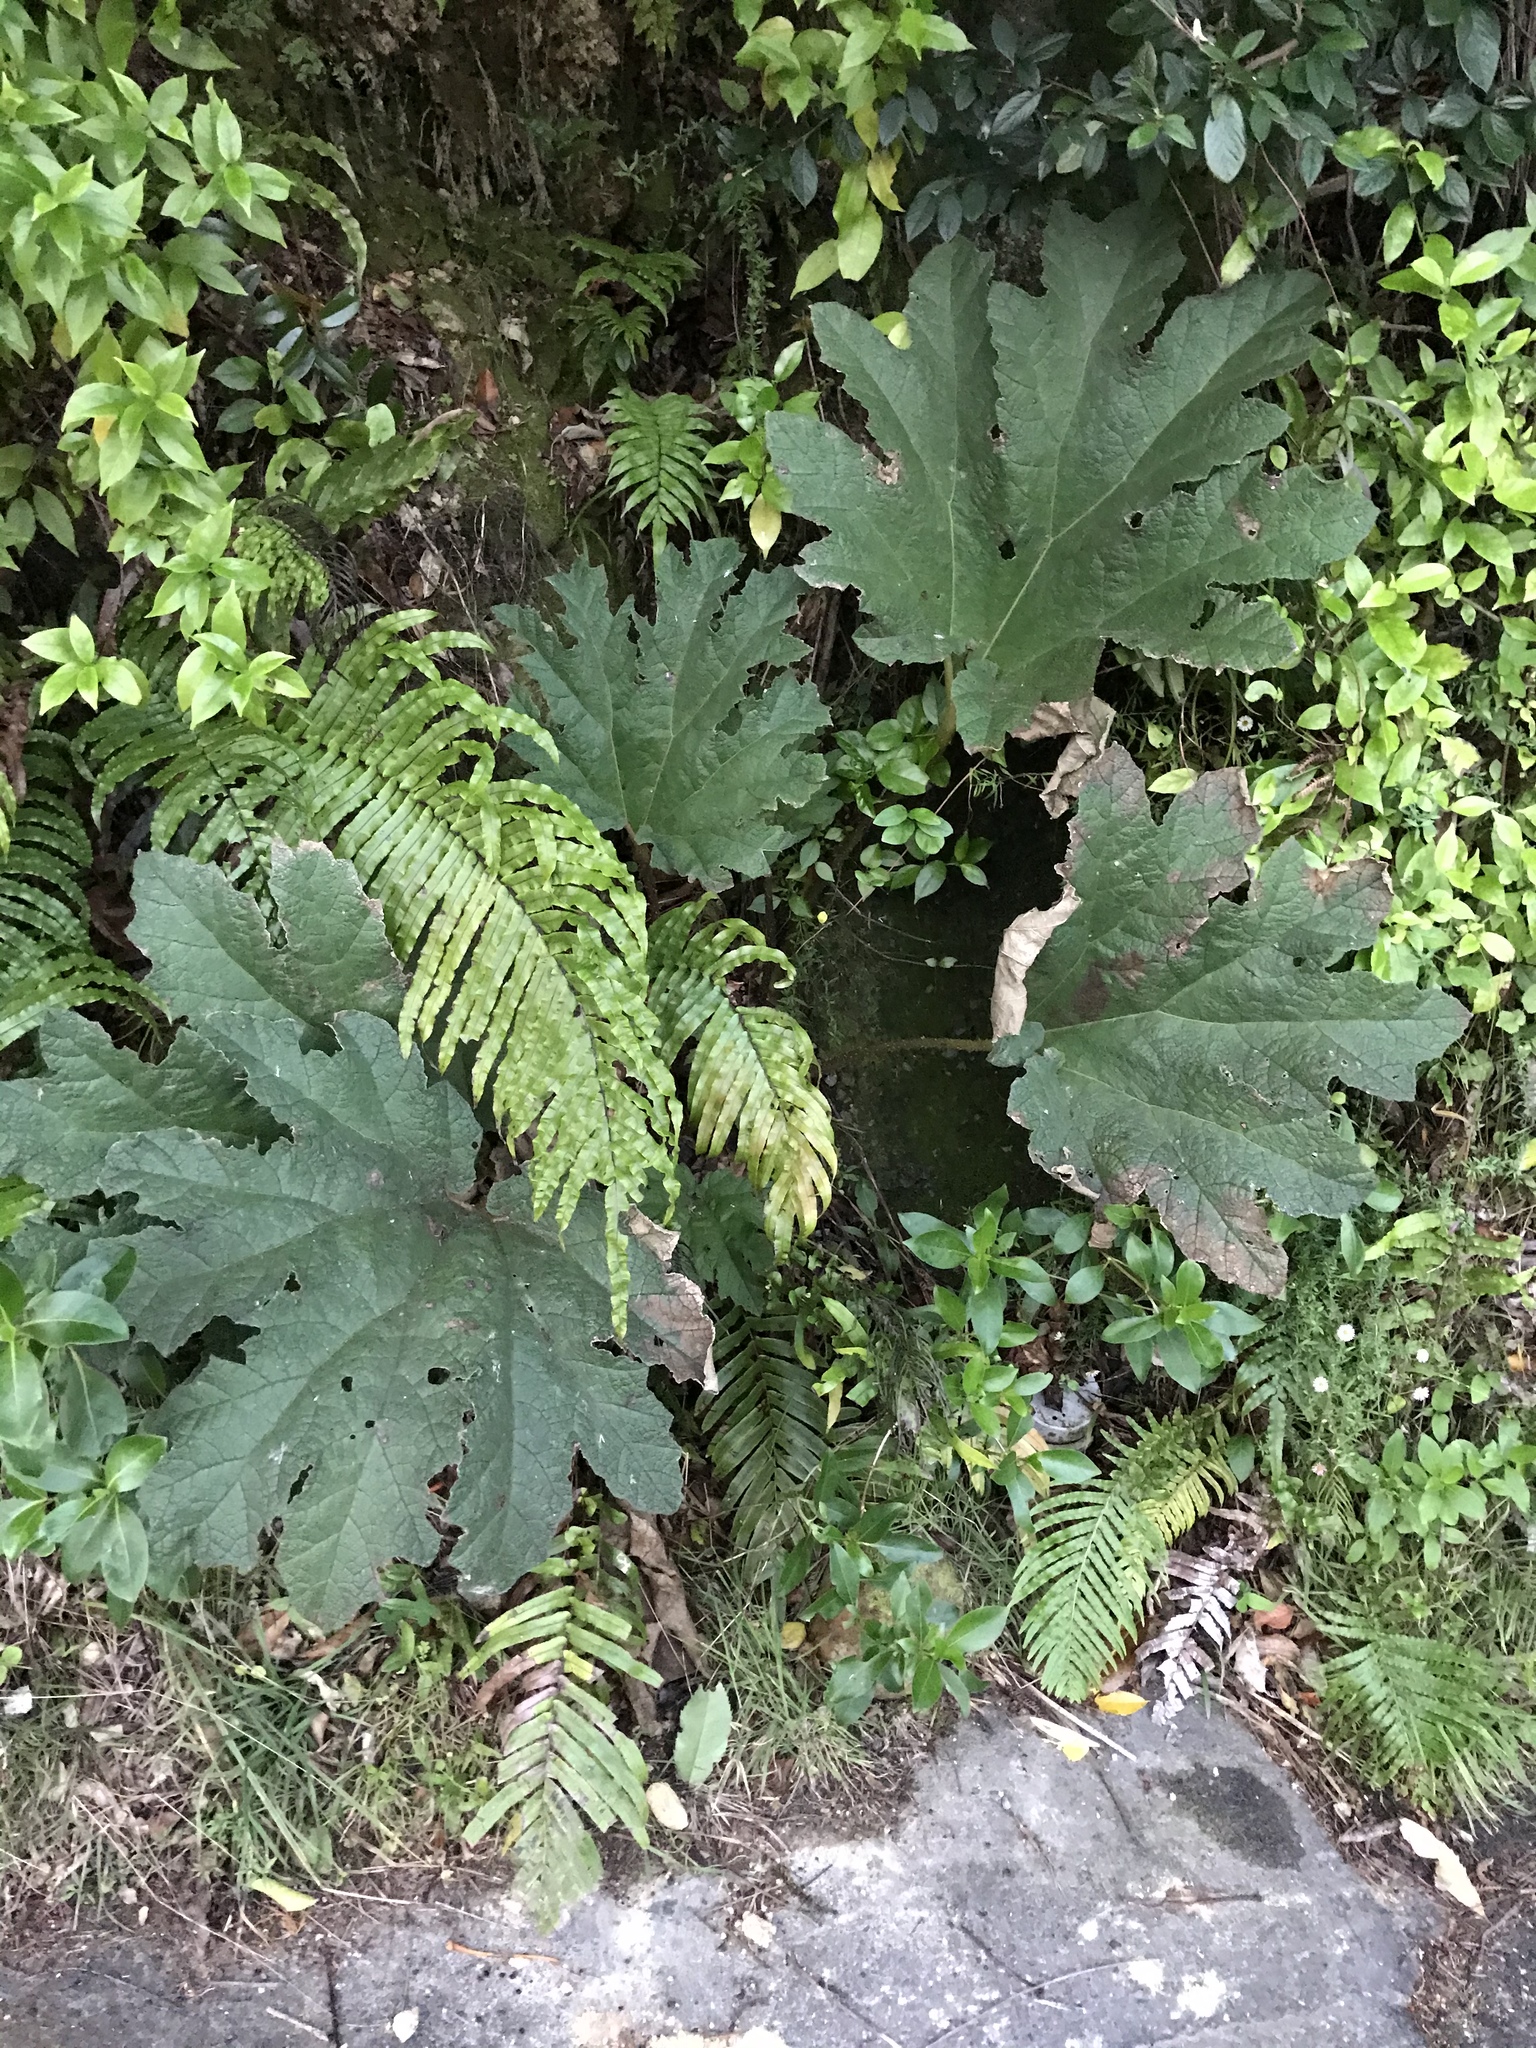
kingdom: Plantae
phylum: Tracheophyta
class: Magnoliopsida
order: Gunnerales
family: Gunneraceae
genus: Gunnera
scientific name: Gunnera tinctoria
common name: Giant-rhubarb
